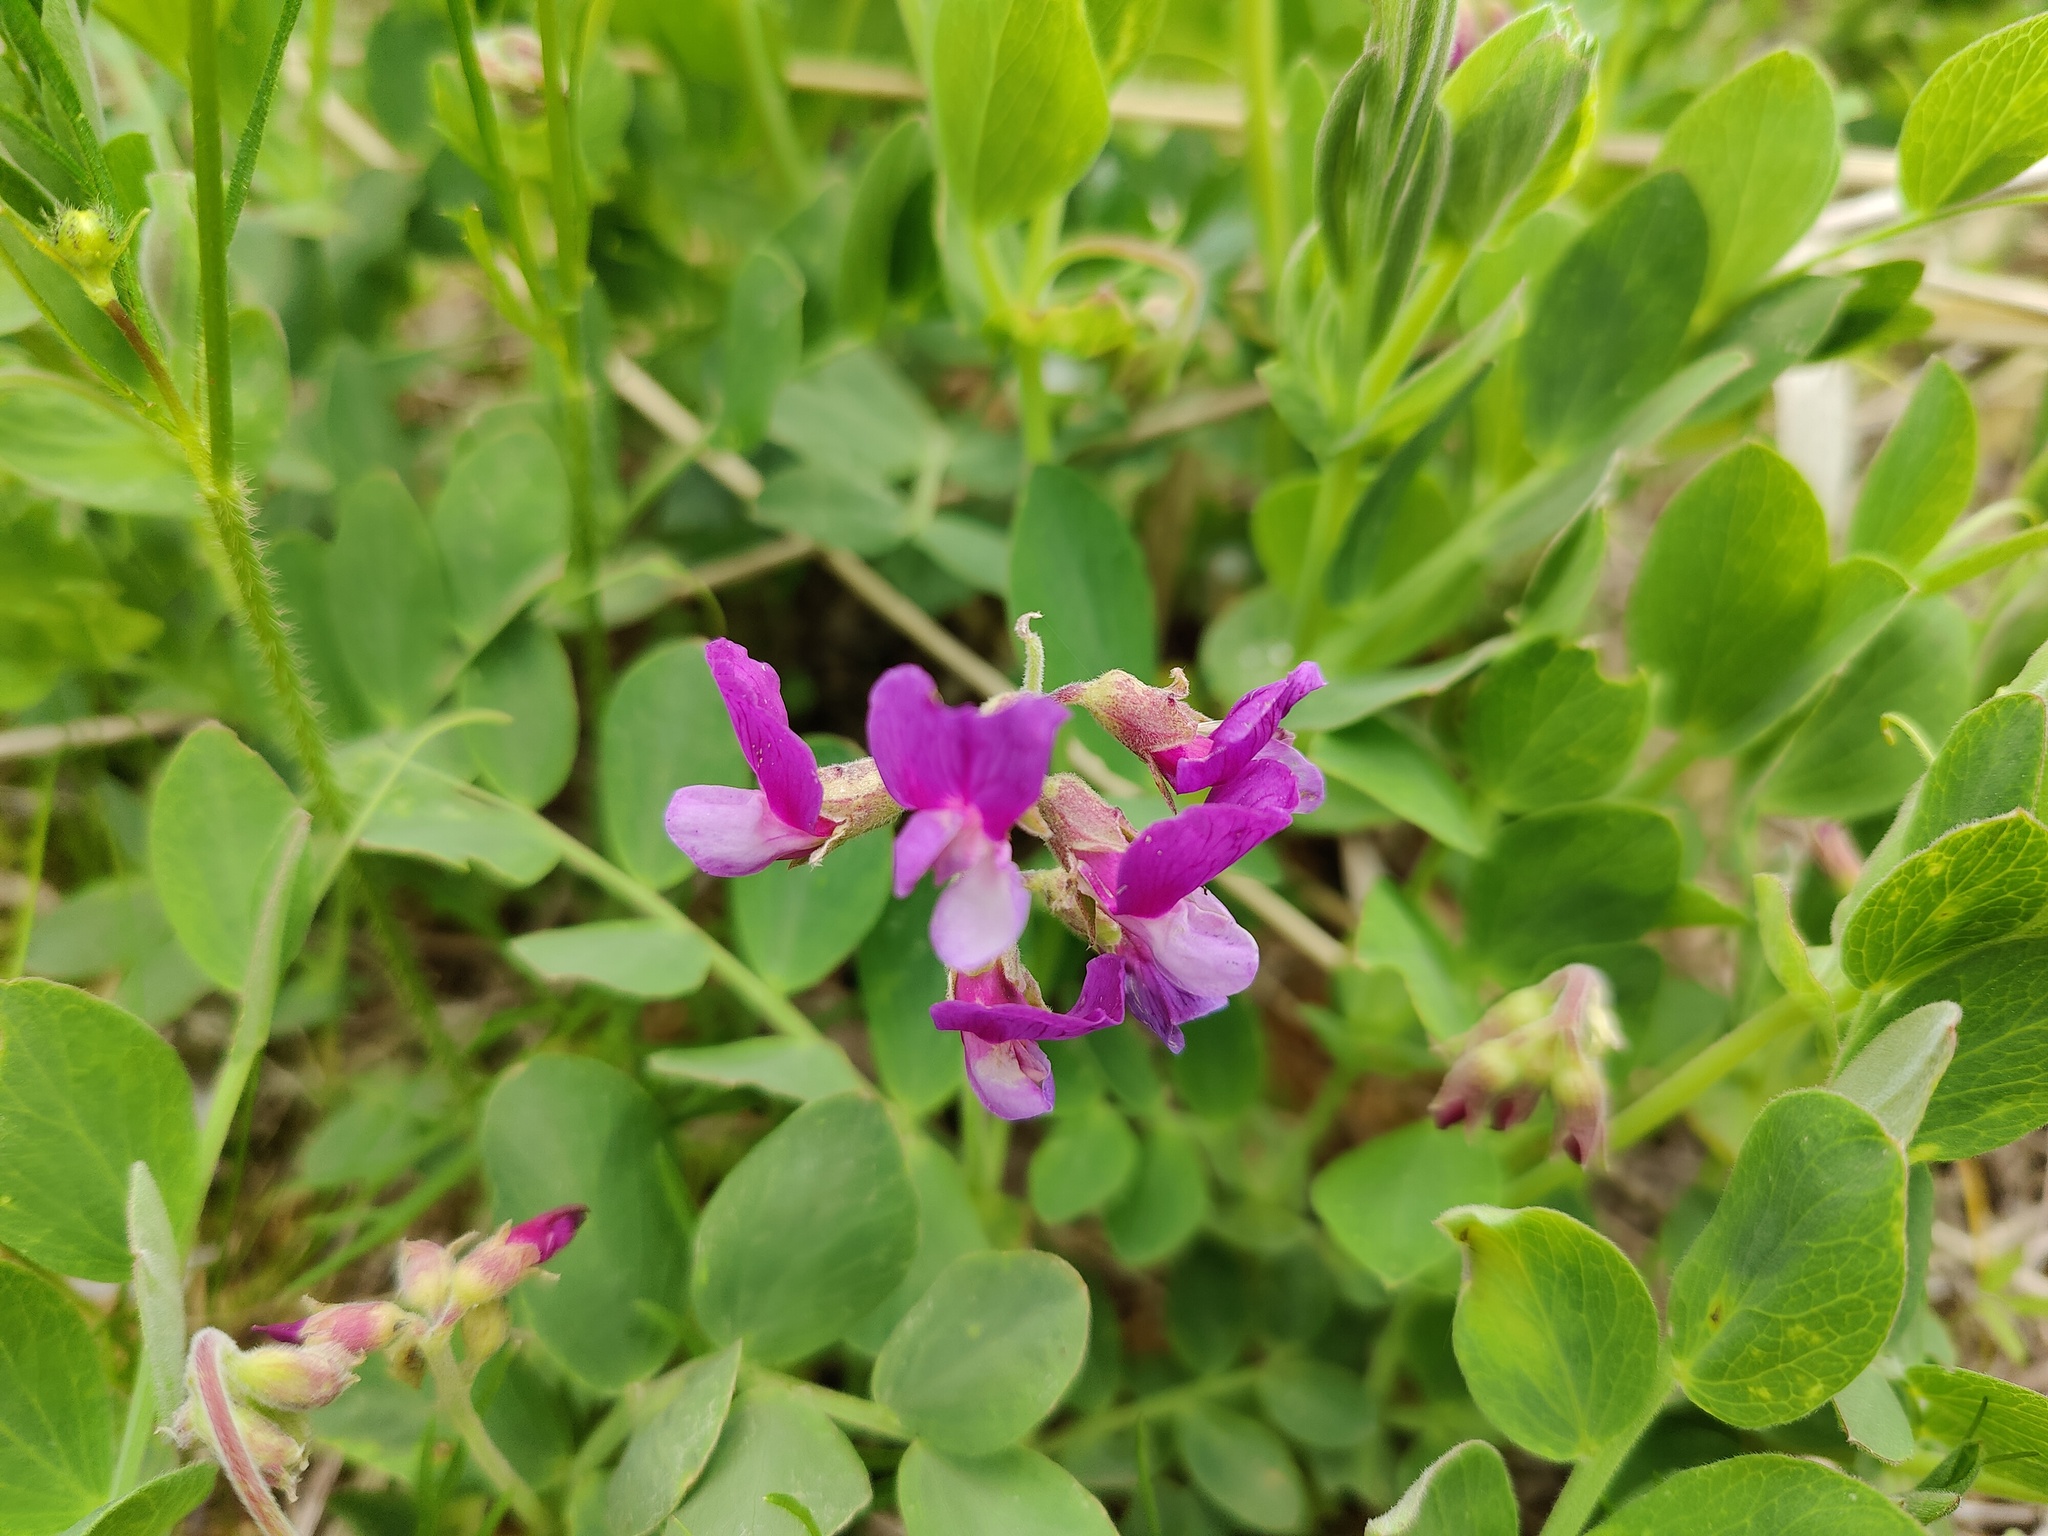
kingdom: Plantae
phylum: Tracheophyta
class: Magnoliopsida
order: Fabales
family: Fabaceae
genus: Lathyrus
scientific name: Lathyrus japonicus
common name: Sea pea
